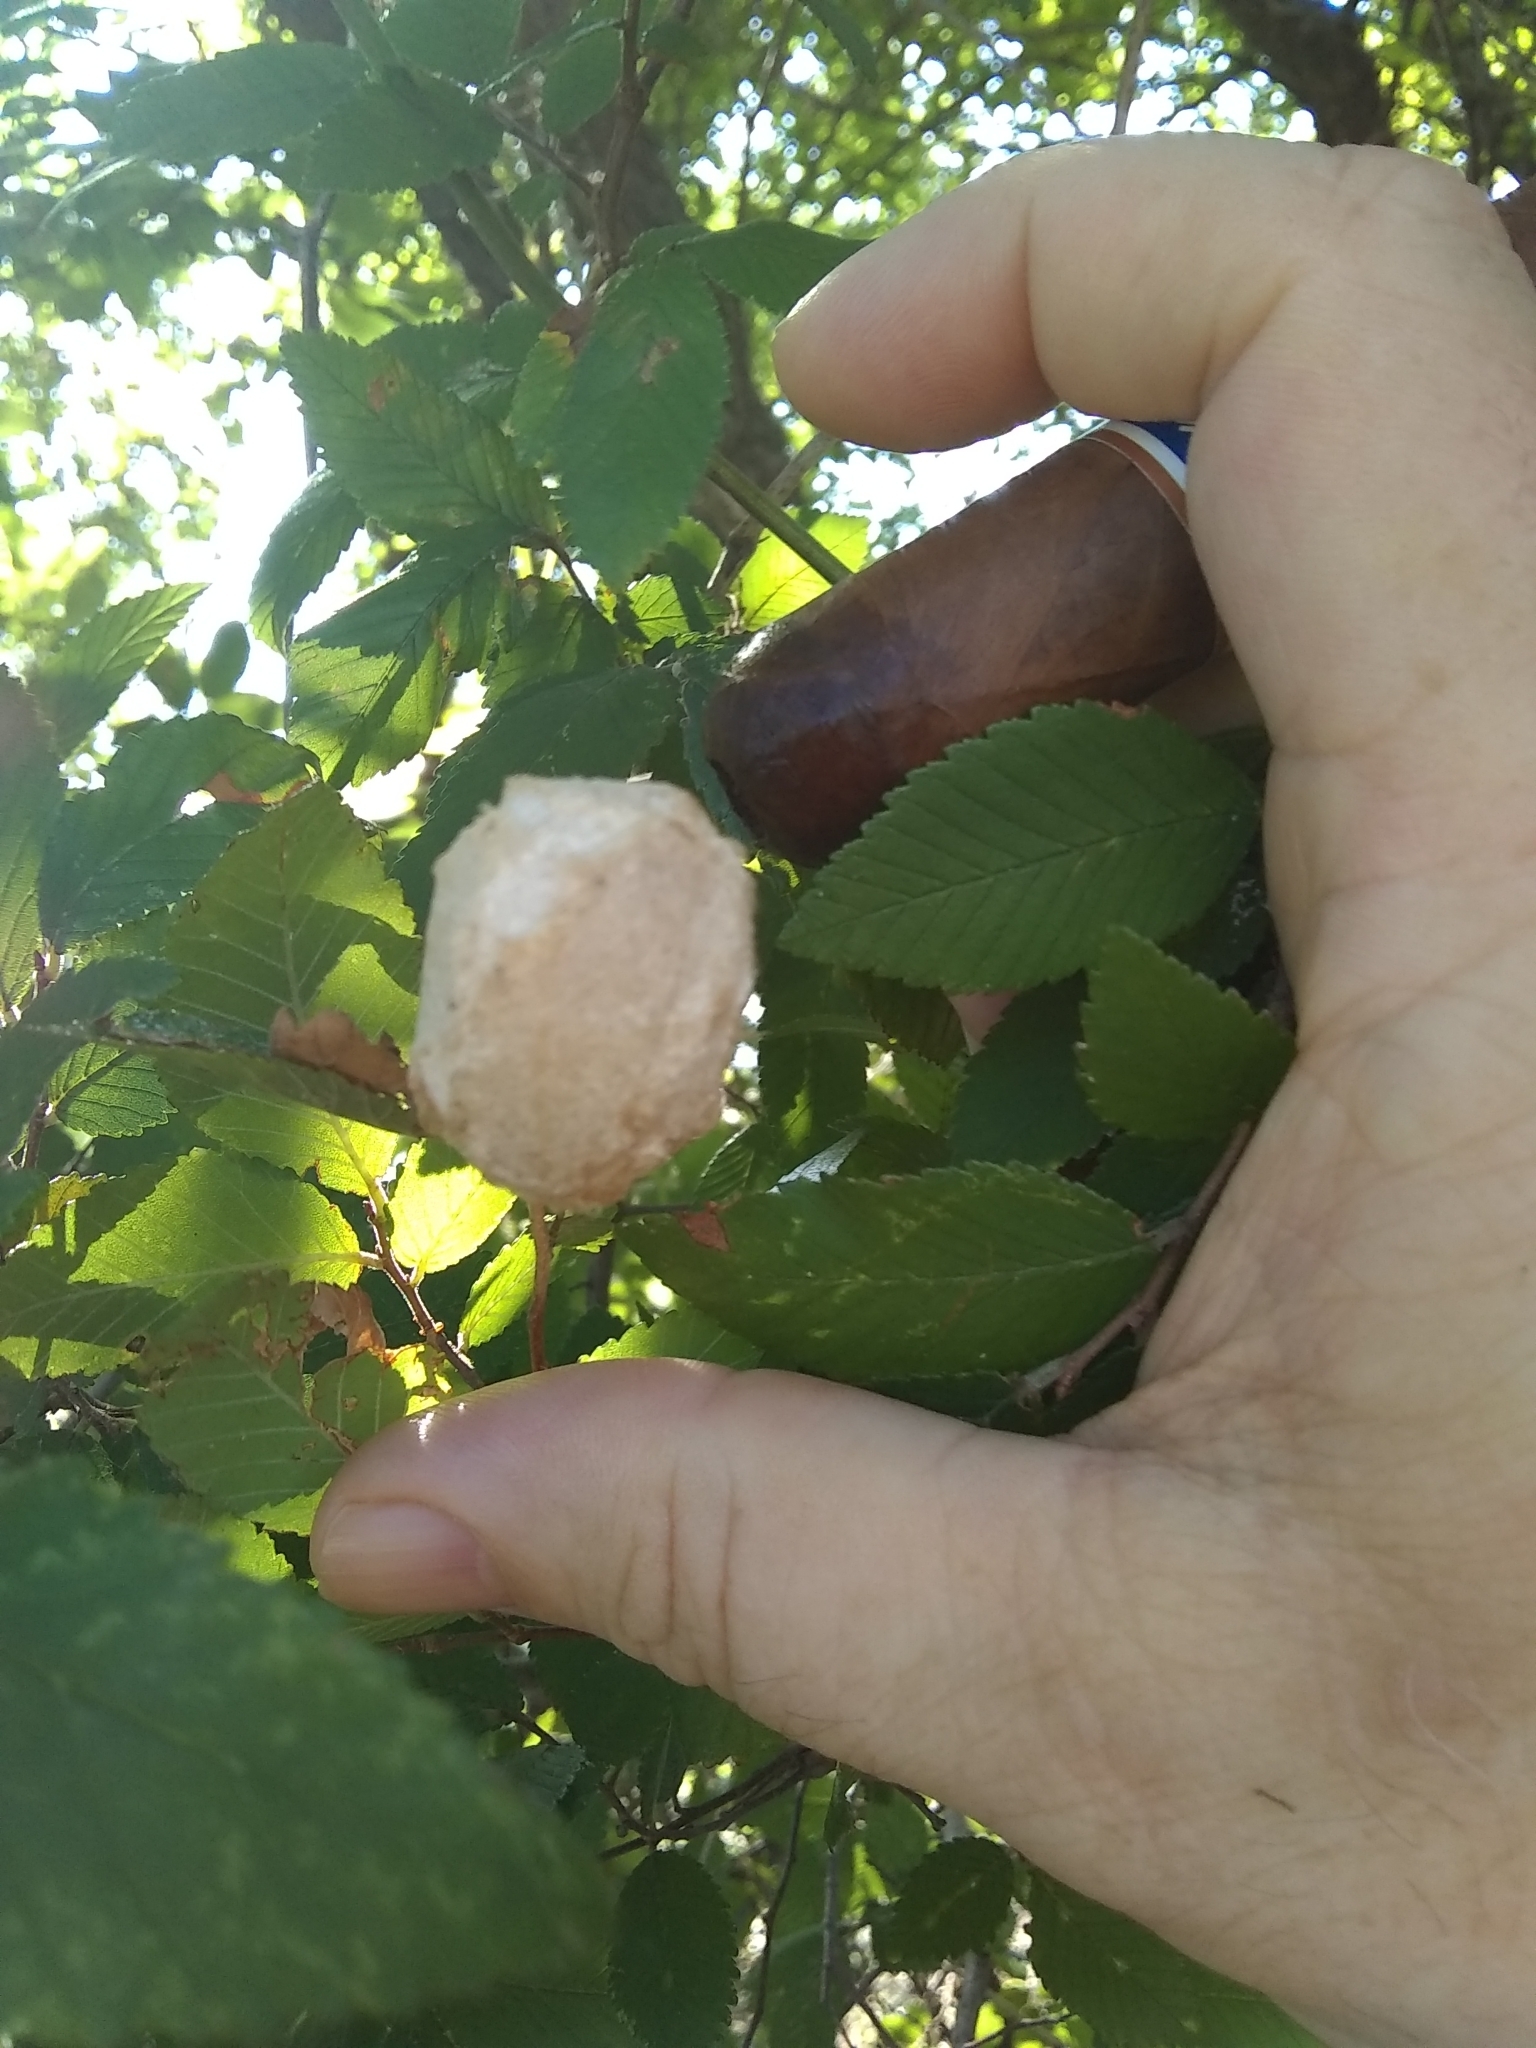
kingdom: Animalia
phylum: Arthropoda
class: Insecta
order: Lepidoptera
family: Saturniidae
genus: Antheraea
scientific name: Antheraea polyphemus
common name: Polyphemus moth
